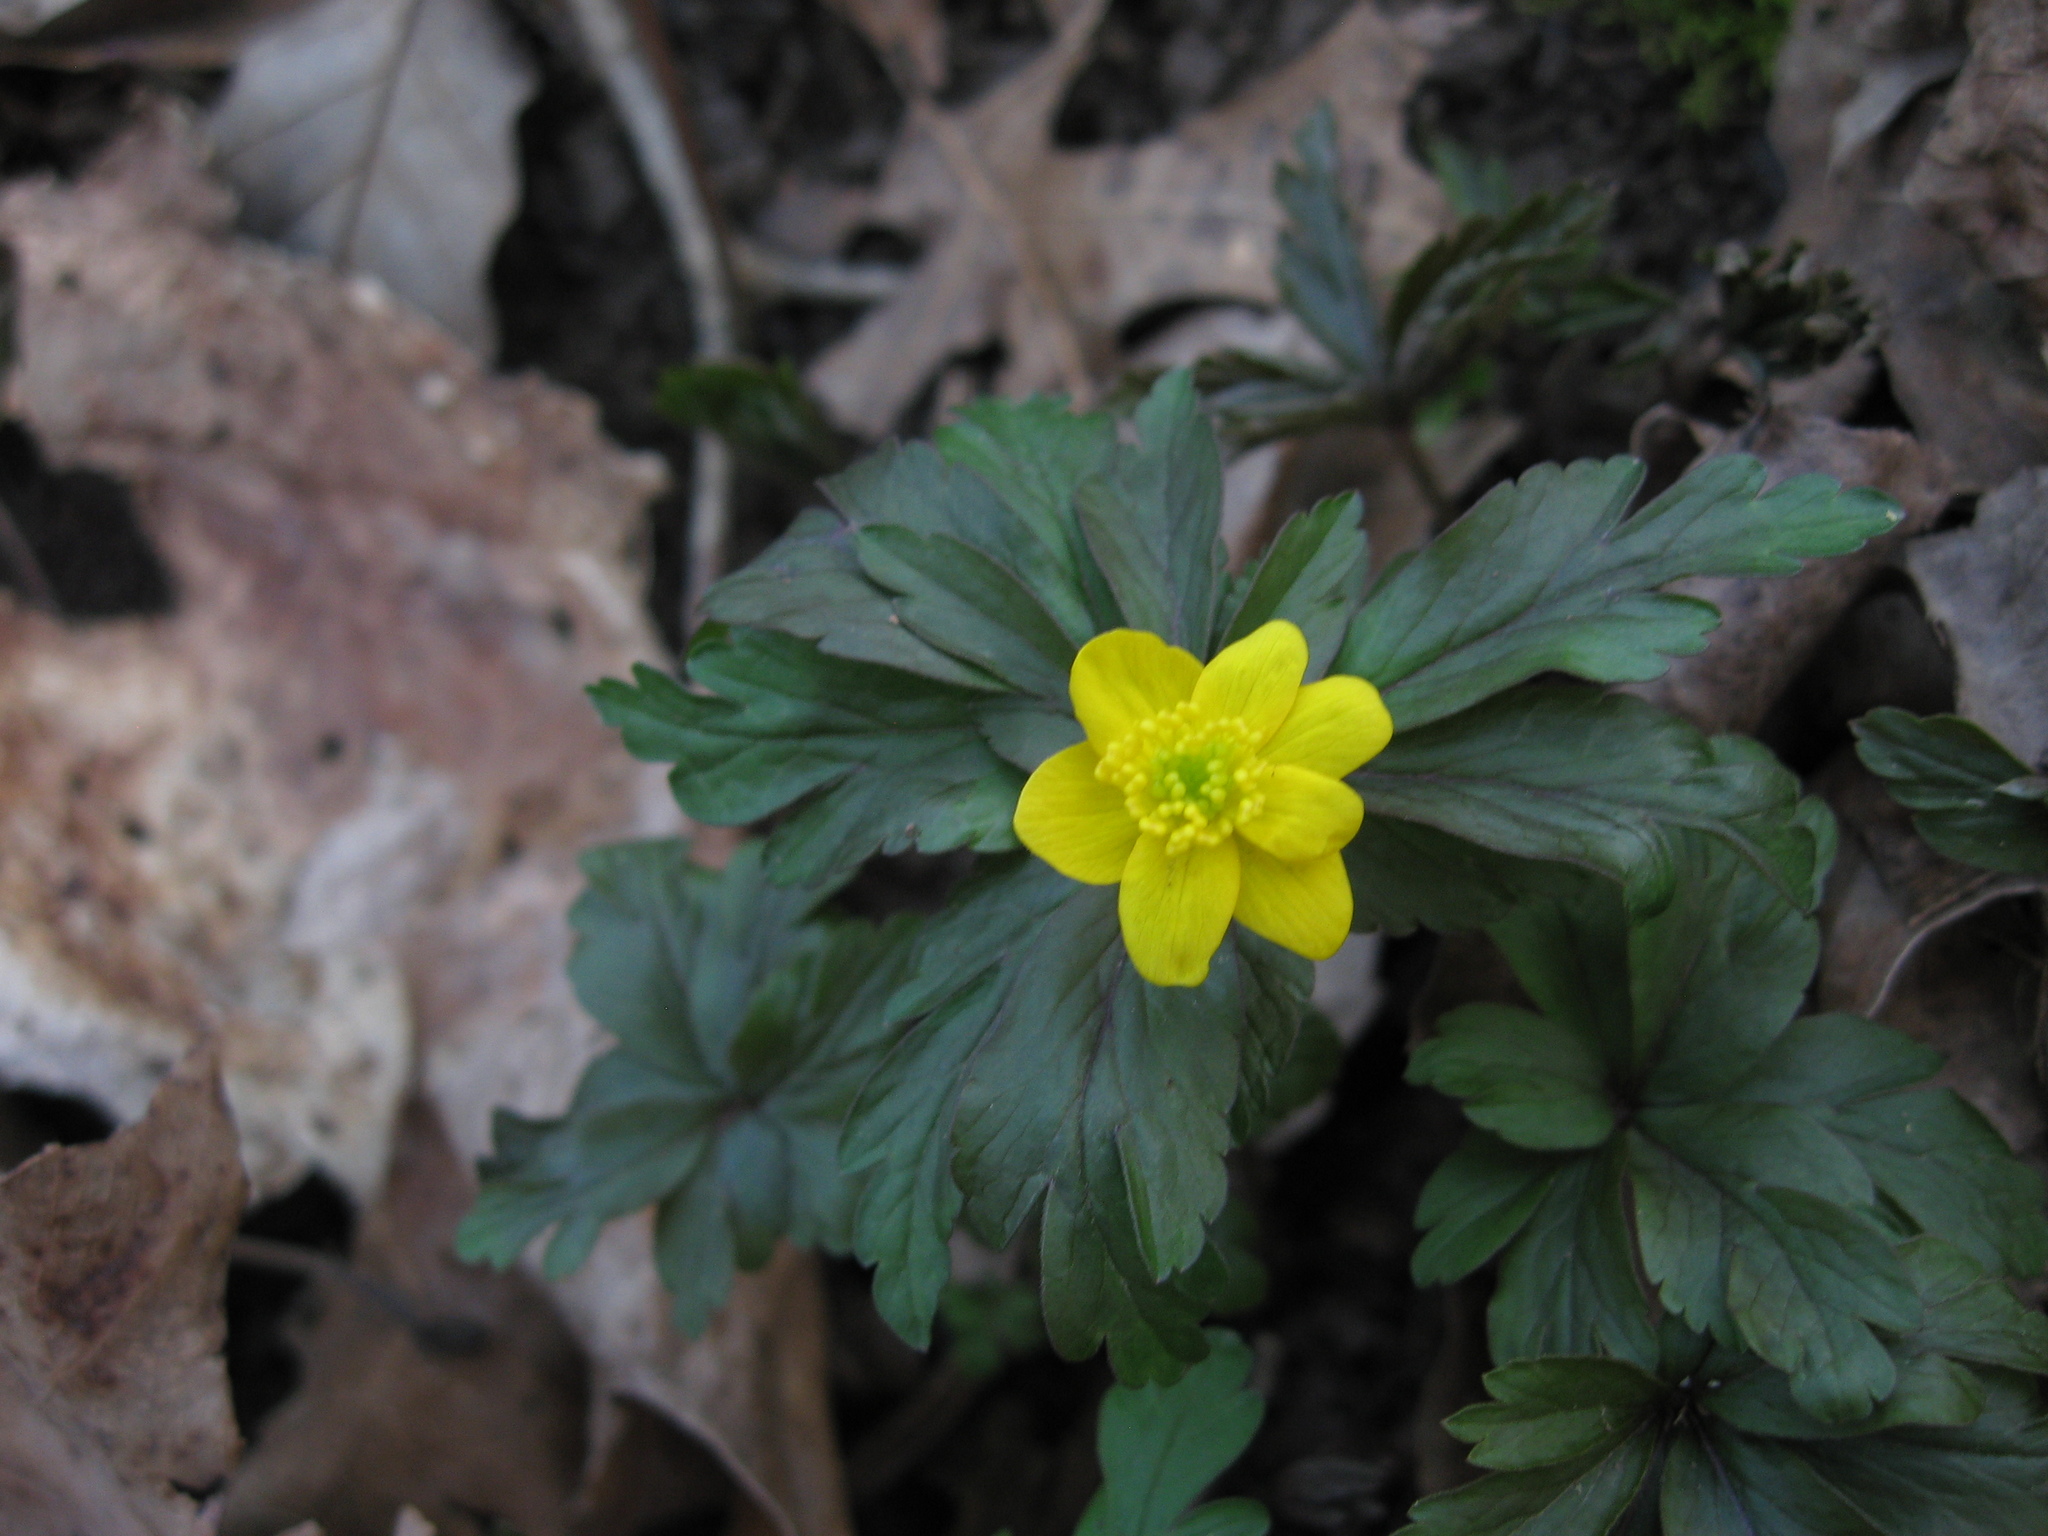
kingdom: Plantae
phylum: Tracheophyta
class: Magnoliopsida
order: Ranunculales
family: Ranunculaceae
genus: Anemone
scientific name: Anemone ranunculoides
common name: Yellow anemone
